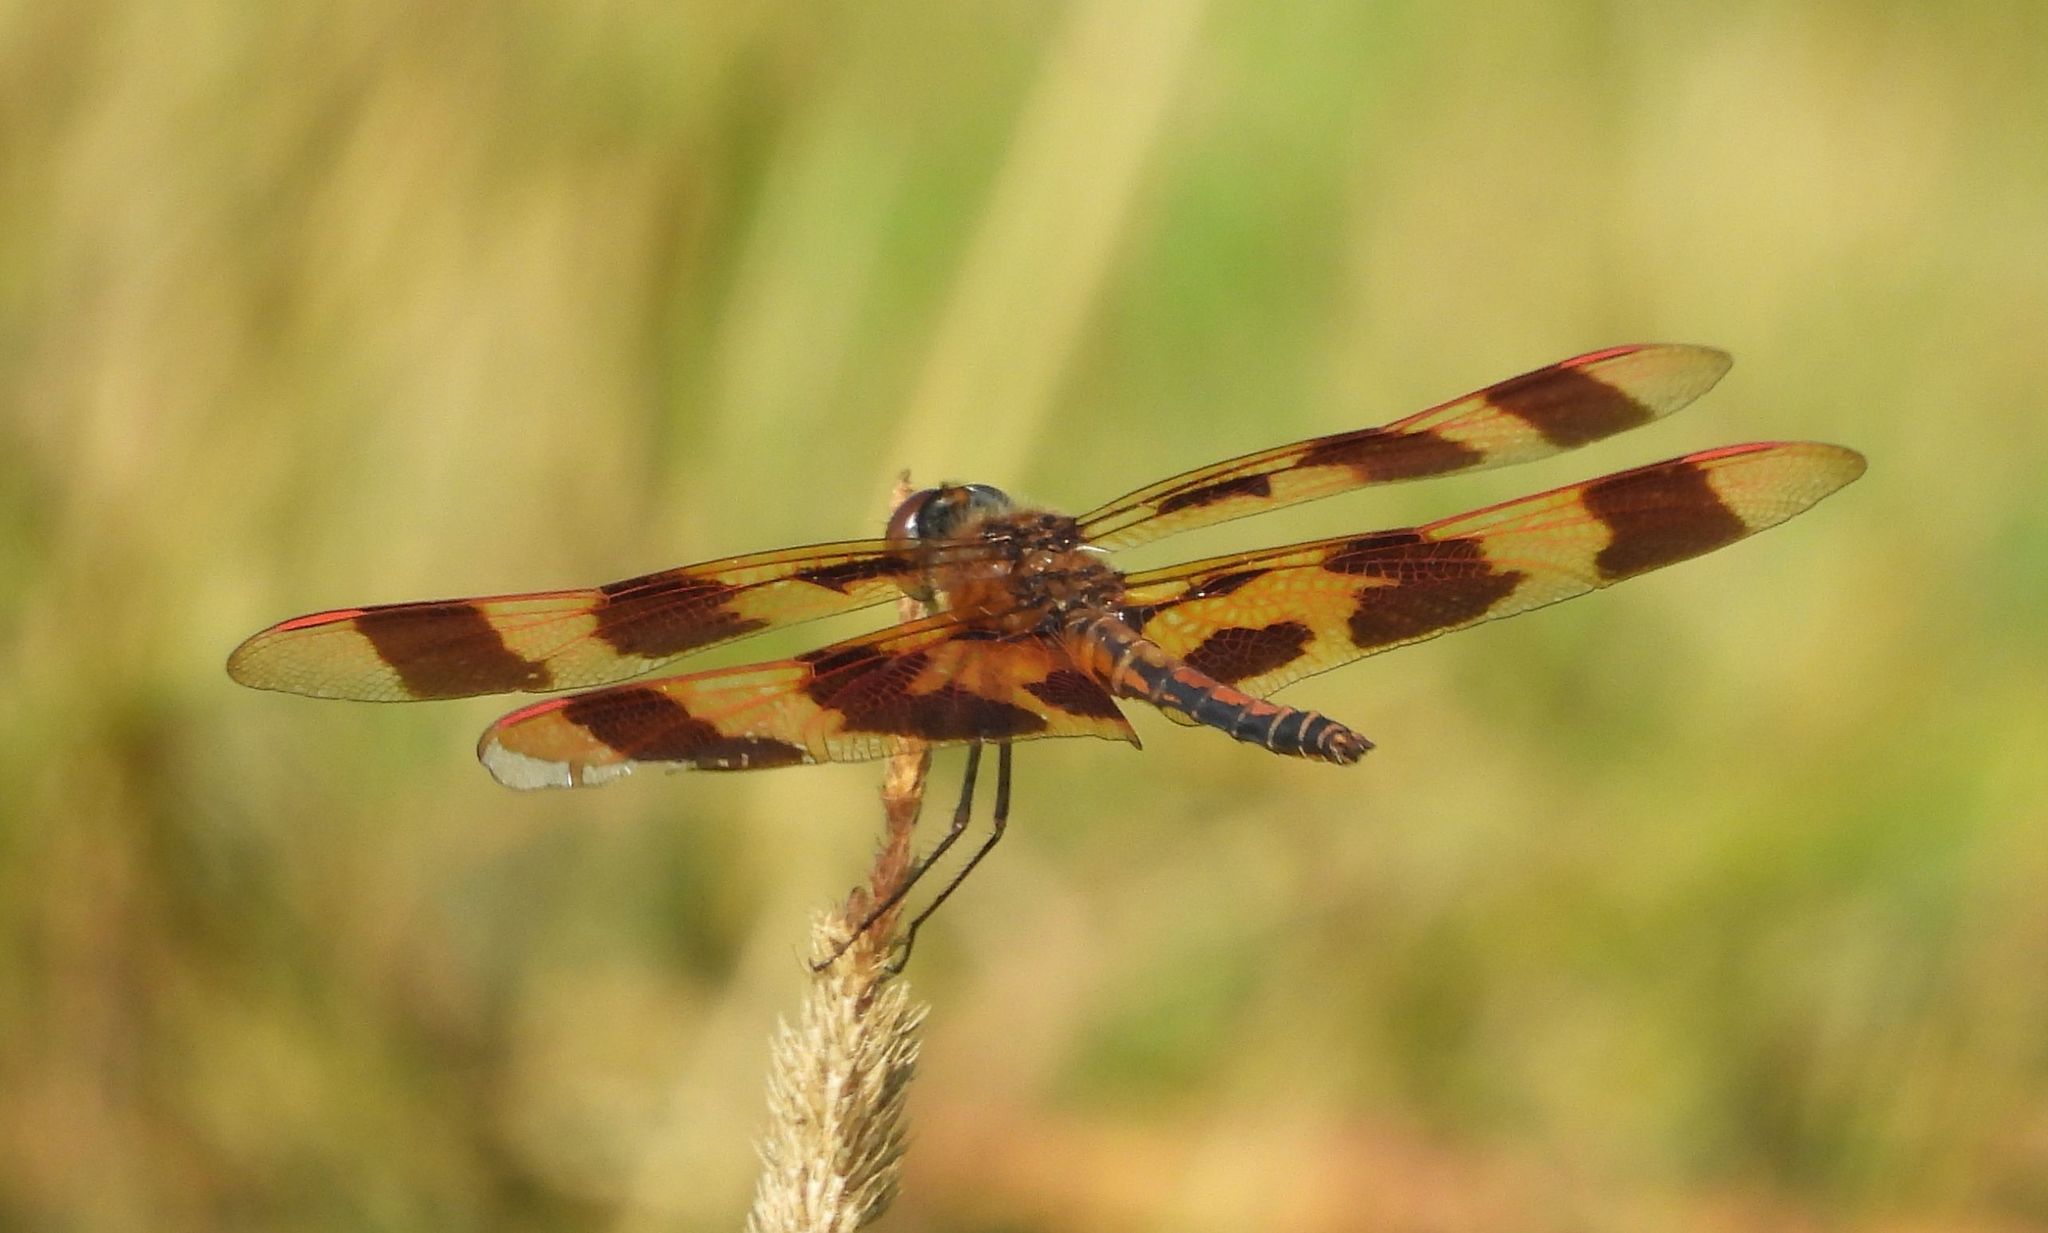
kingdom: Animalia
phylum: Arthropoda
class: Insecta
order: Odonata
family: Libellulidae
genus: Celithemis
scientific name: Celithemis eponina
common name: Halloween pennant
